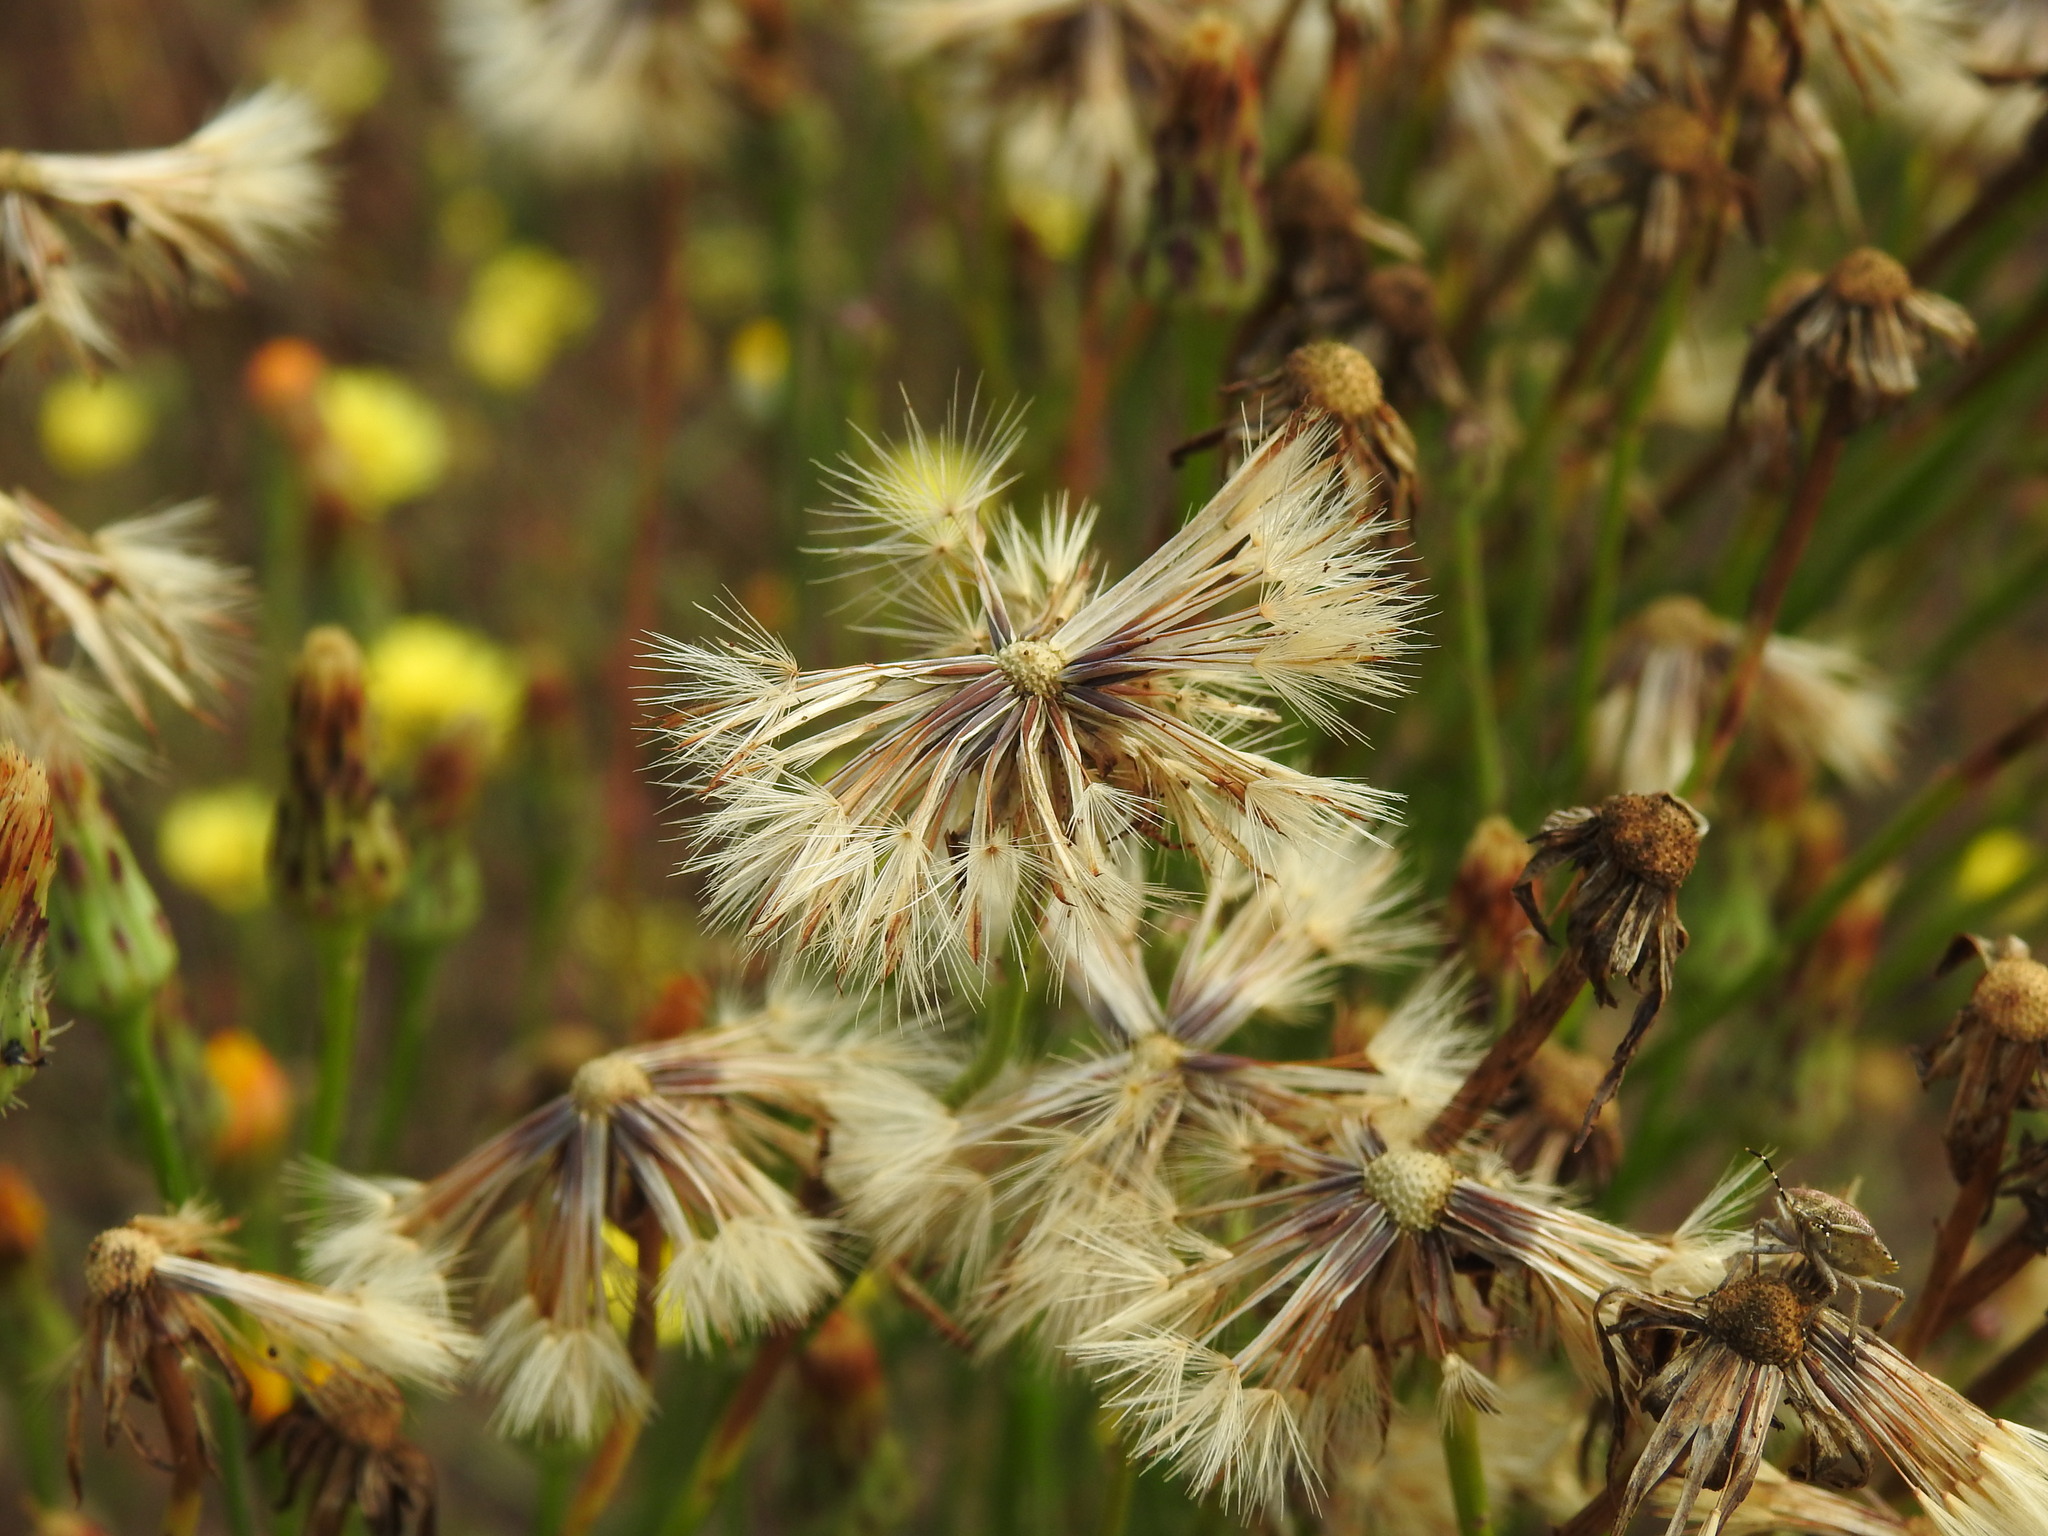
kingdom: Plantae
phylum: Tracheophyta
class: Magnoliopsida
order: Asterales
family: Asteraceae
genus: Hypochaeris
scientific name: Hypochaeris radicata
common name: Flatweed
